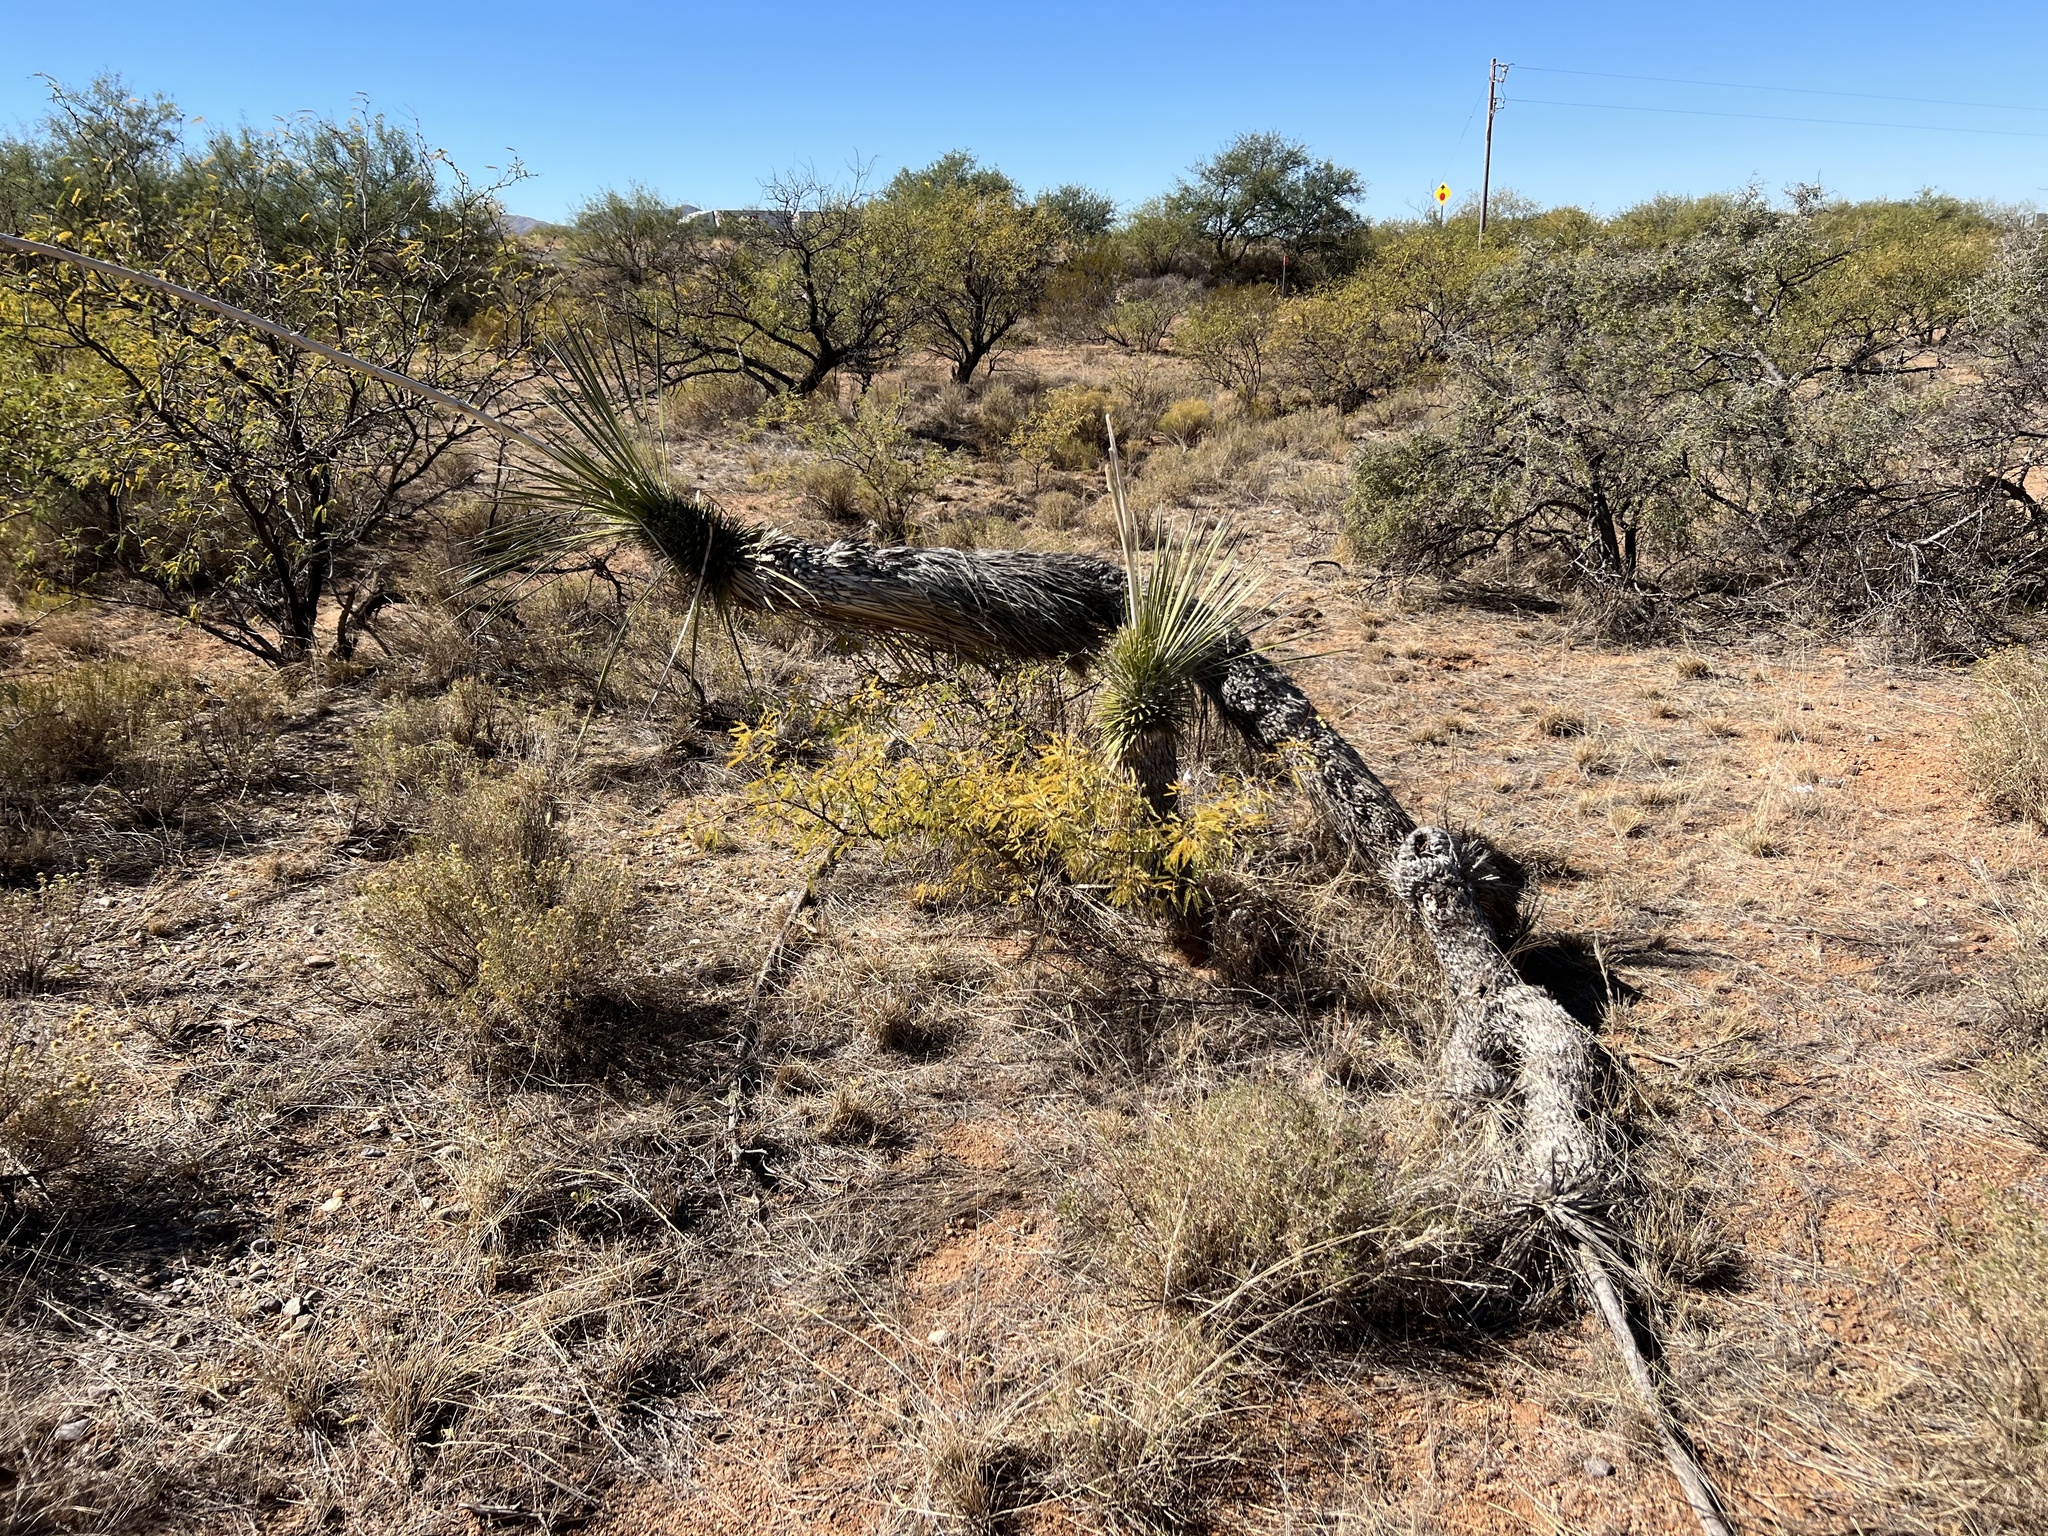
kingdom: Plantae
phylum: Tracheophyta
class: Liliopsida
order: Asparagales
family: Asparagaceae
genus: Yucca
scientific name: Yucca elata
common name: Palmella
